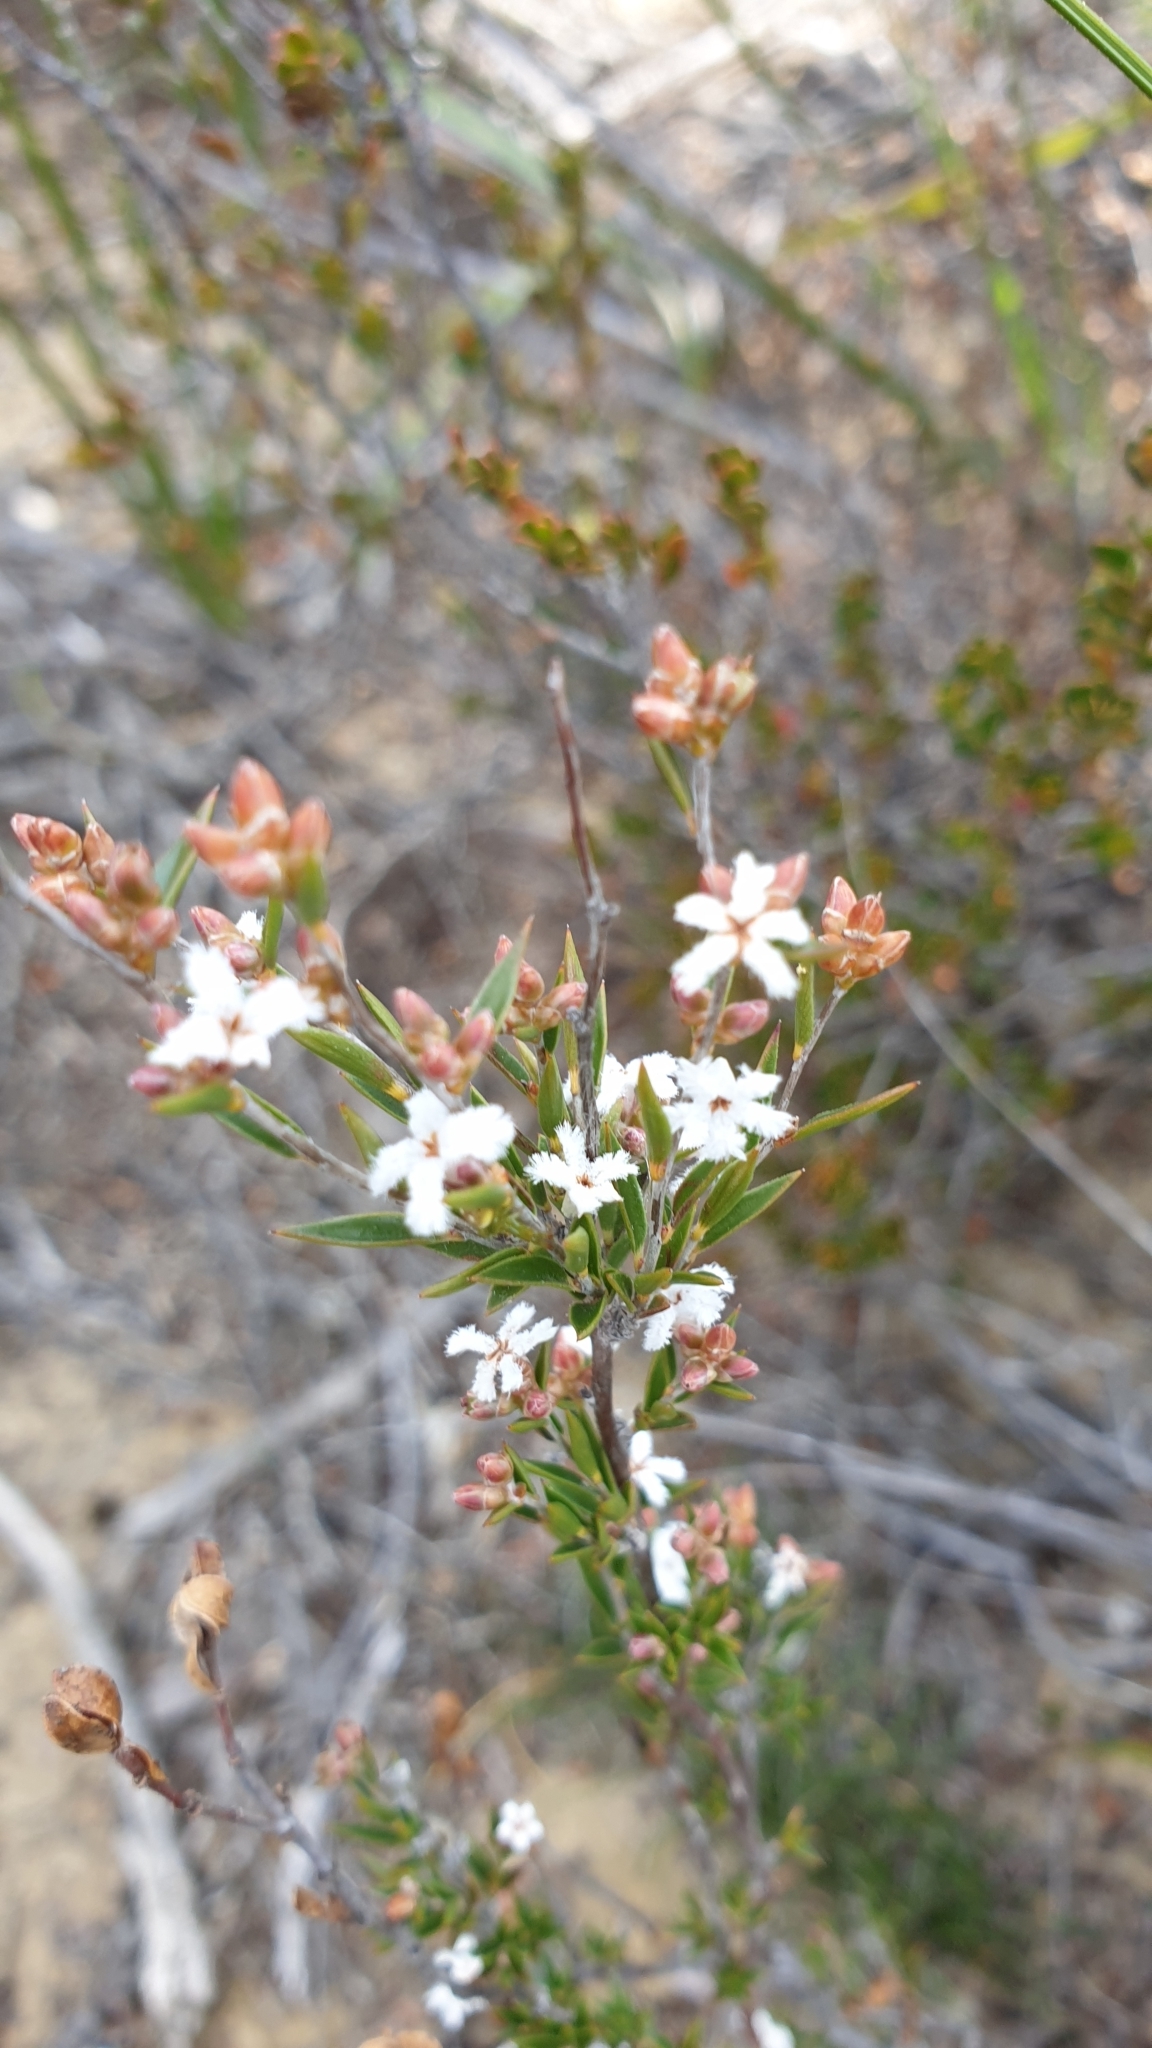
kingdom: Plantae
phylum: Tracheophyta
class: Magnoliopsida
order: Ericales
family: Ericaceae
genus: Leucopogon
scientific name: Leucopogon virgatus
